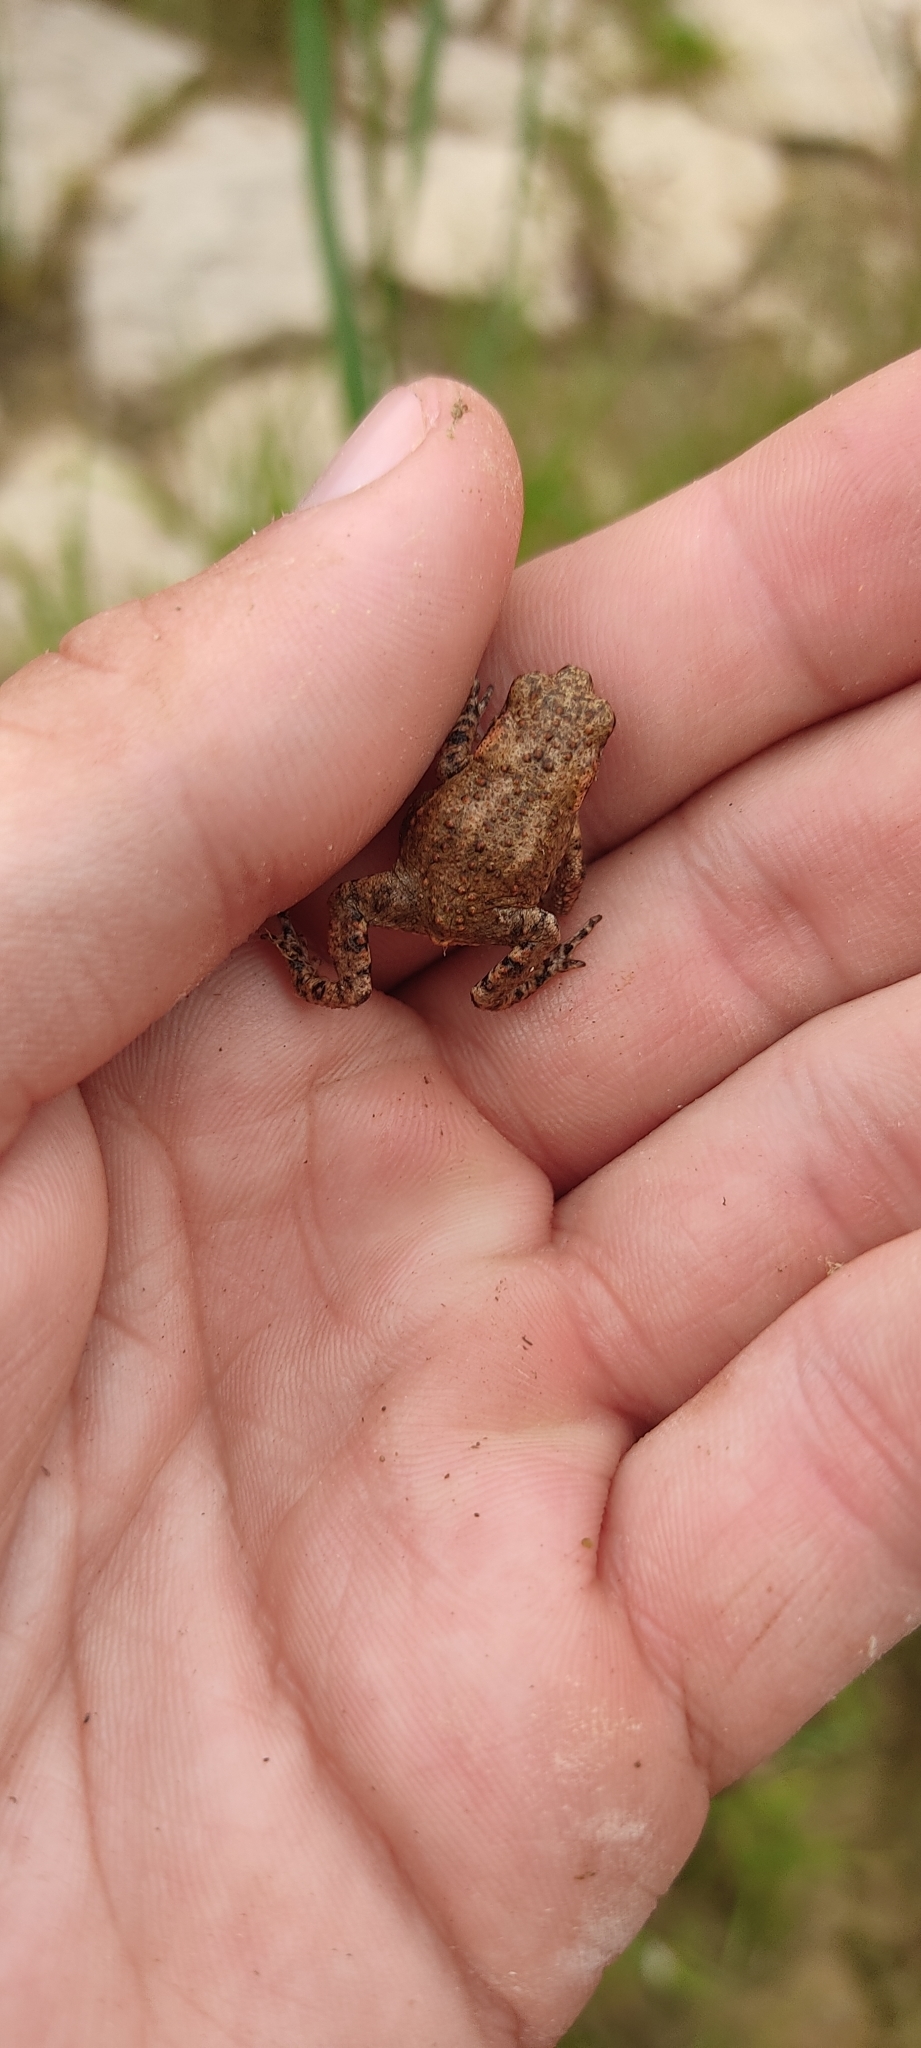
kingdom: Animalia
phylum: Chordata
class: Amphibia
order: Anura
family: Bufonidae
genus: Bufo
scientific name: Bufo spinosus
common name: Western common toad
